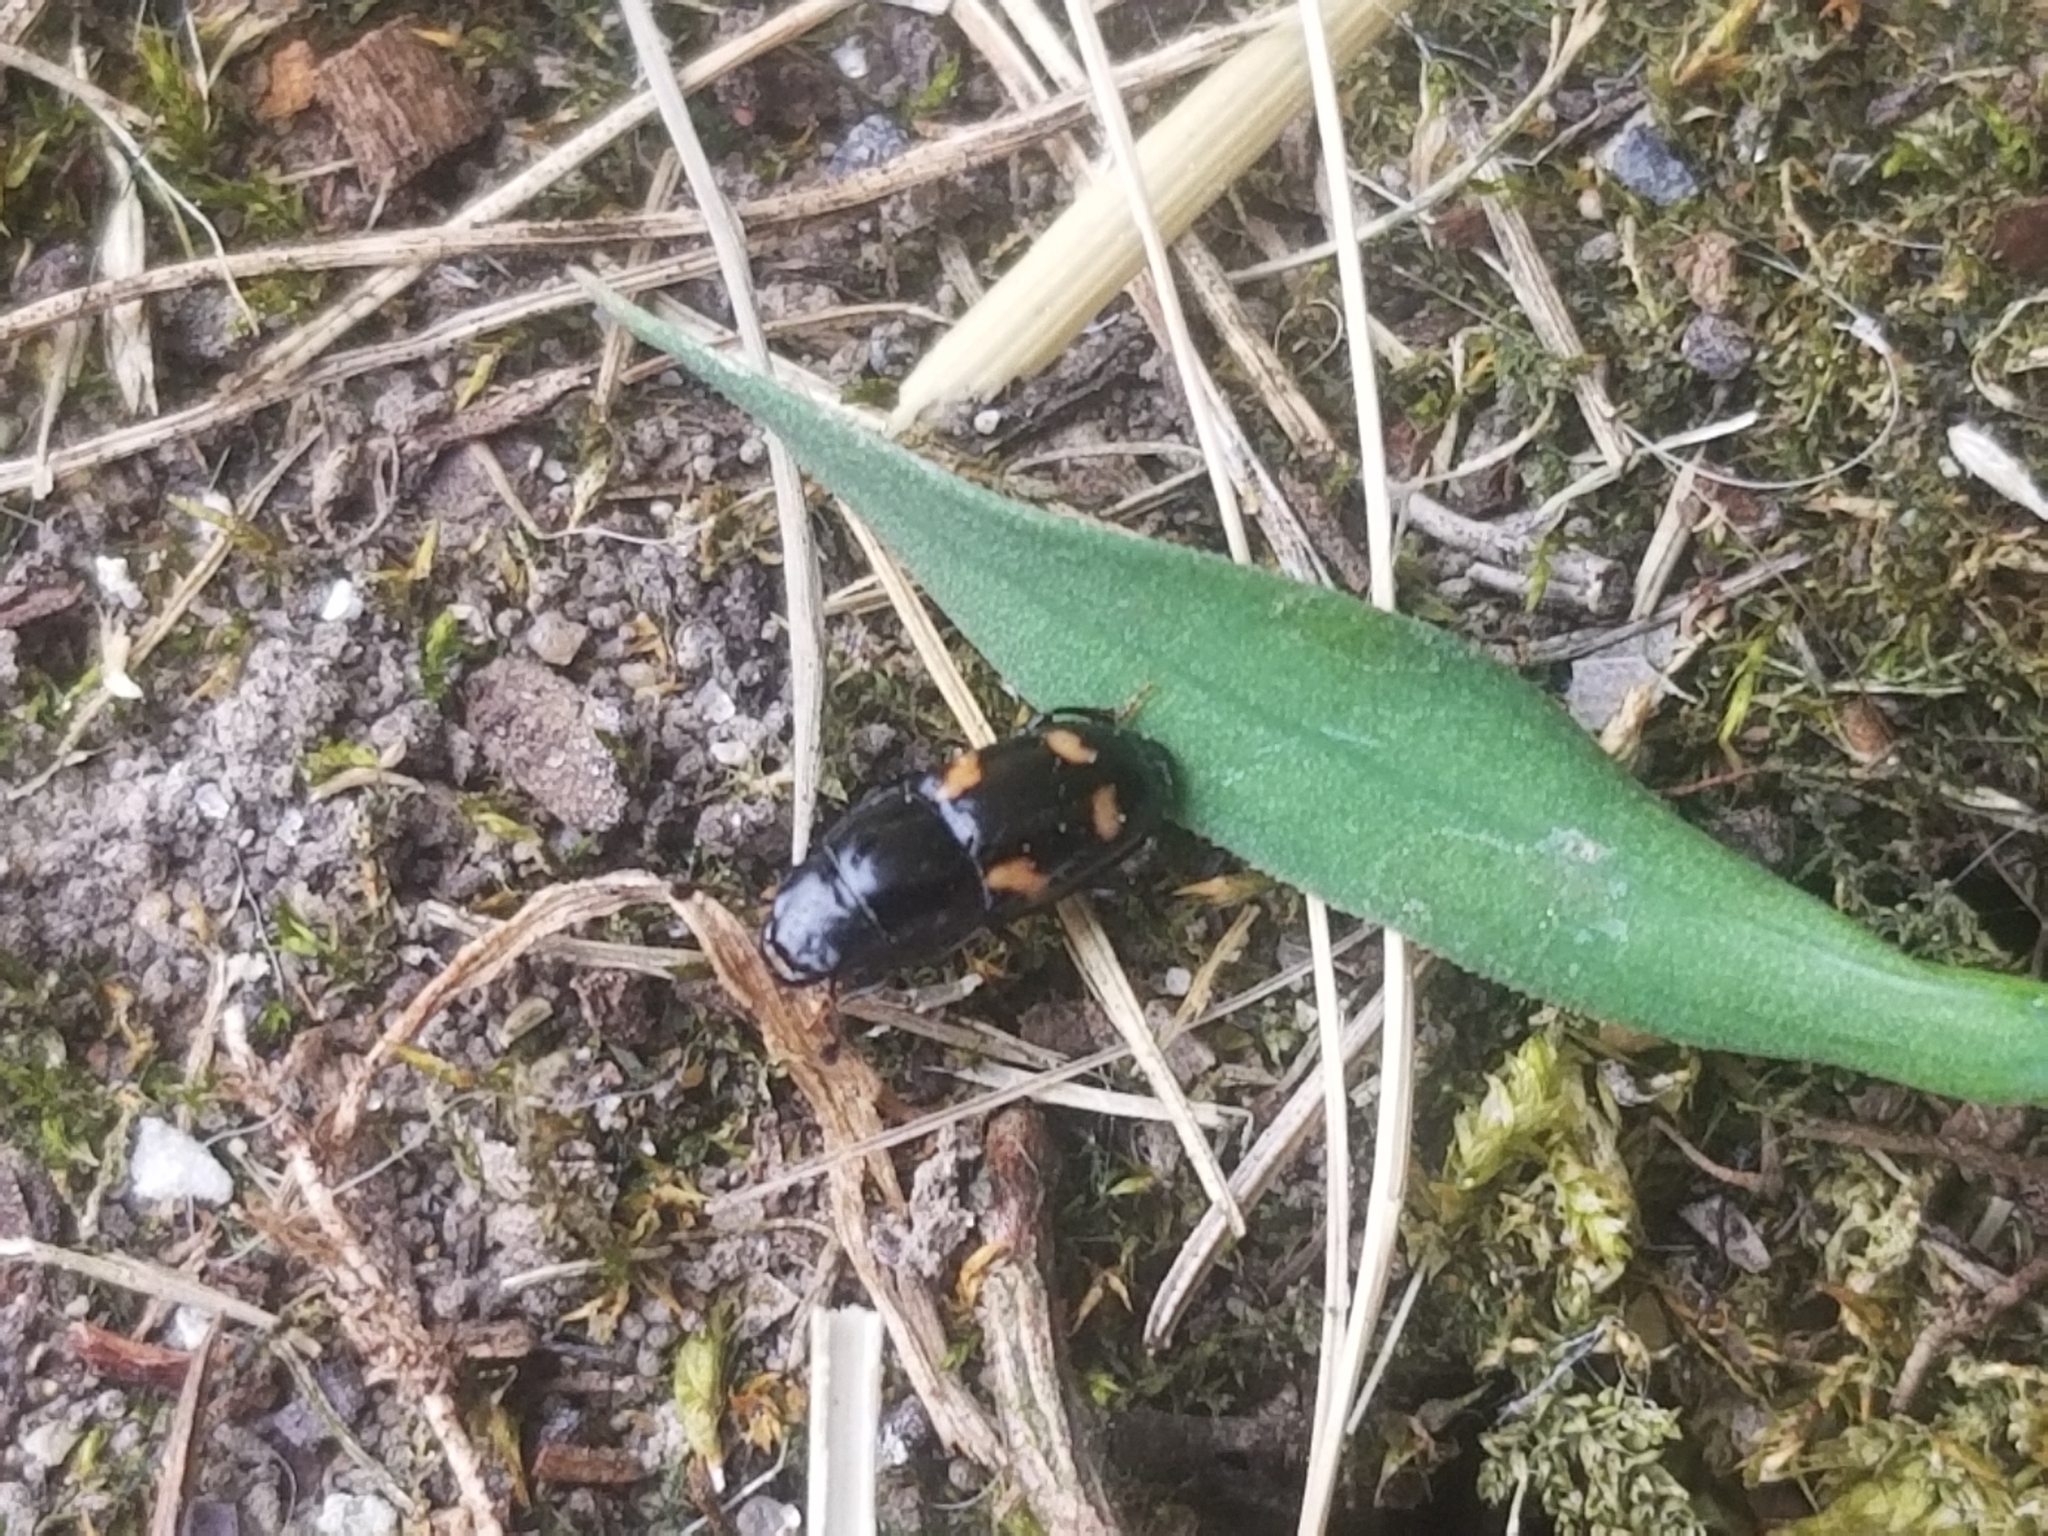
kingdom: Animalia
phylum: Arthropoda
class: Insecta
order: Coleoptera
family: Nitidulidae
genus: Glischrochilus
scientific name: Glischrochilus quadrisignatus
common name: Picnic beetle
